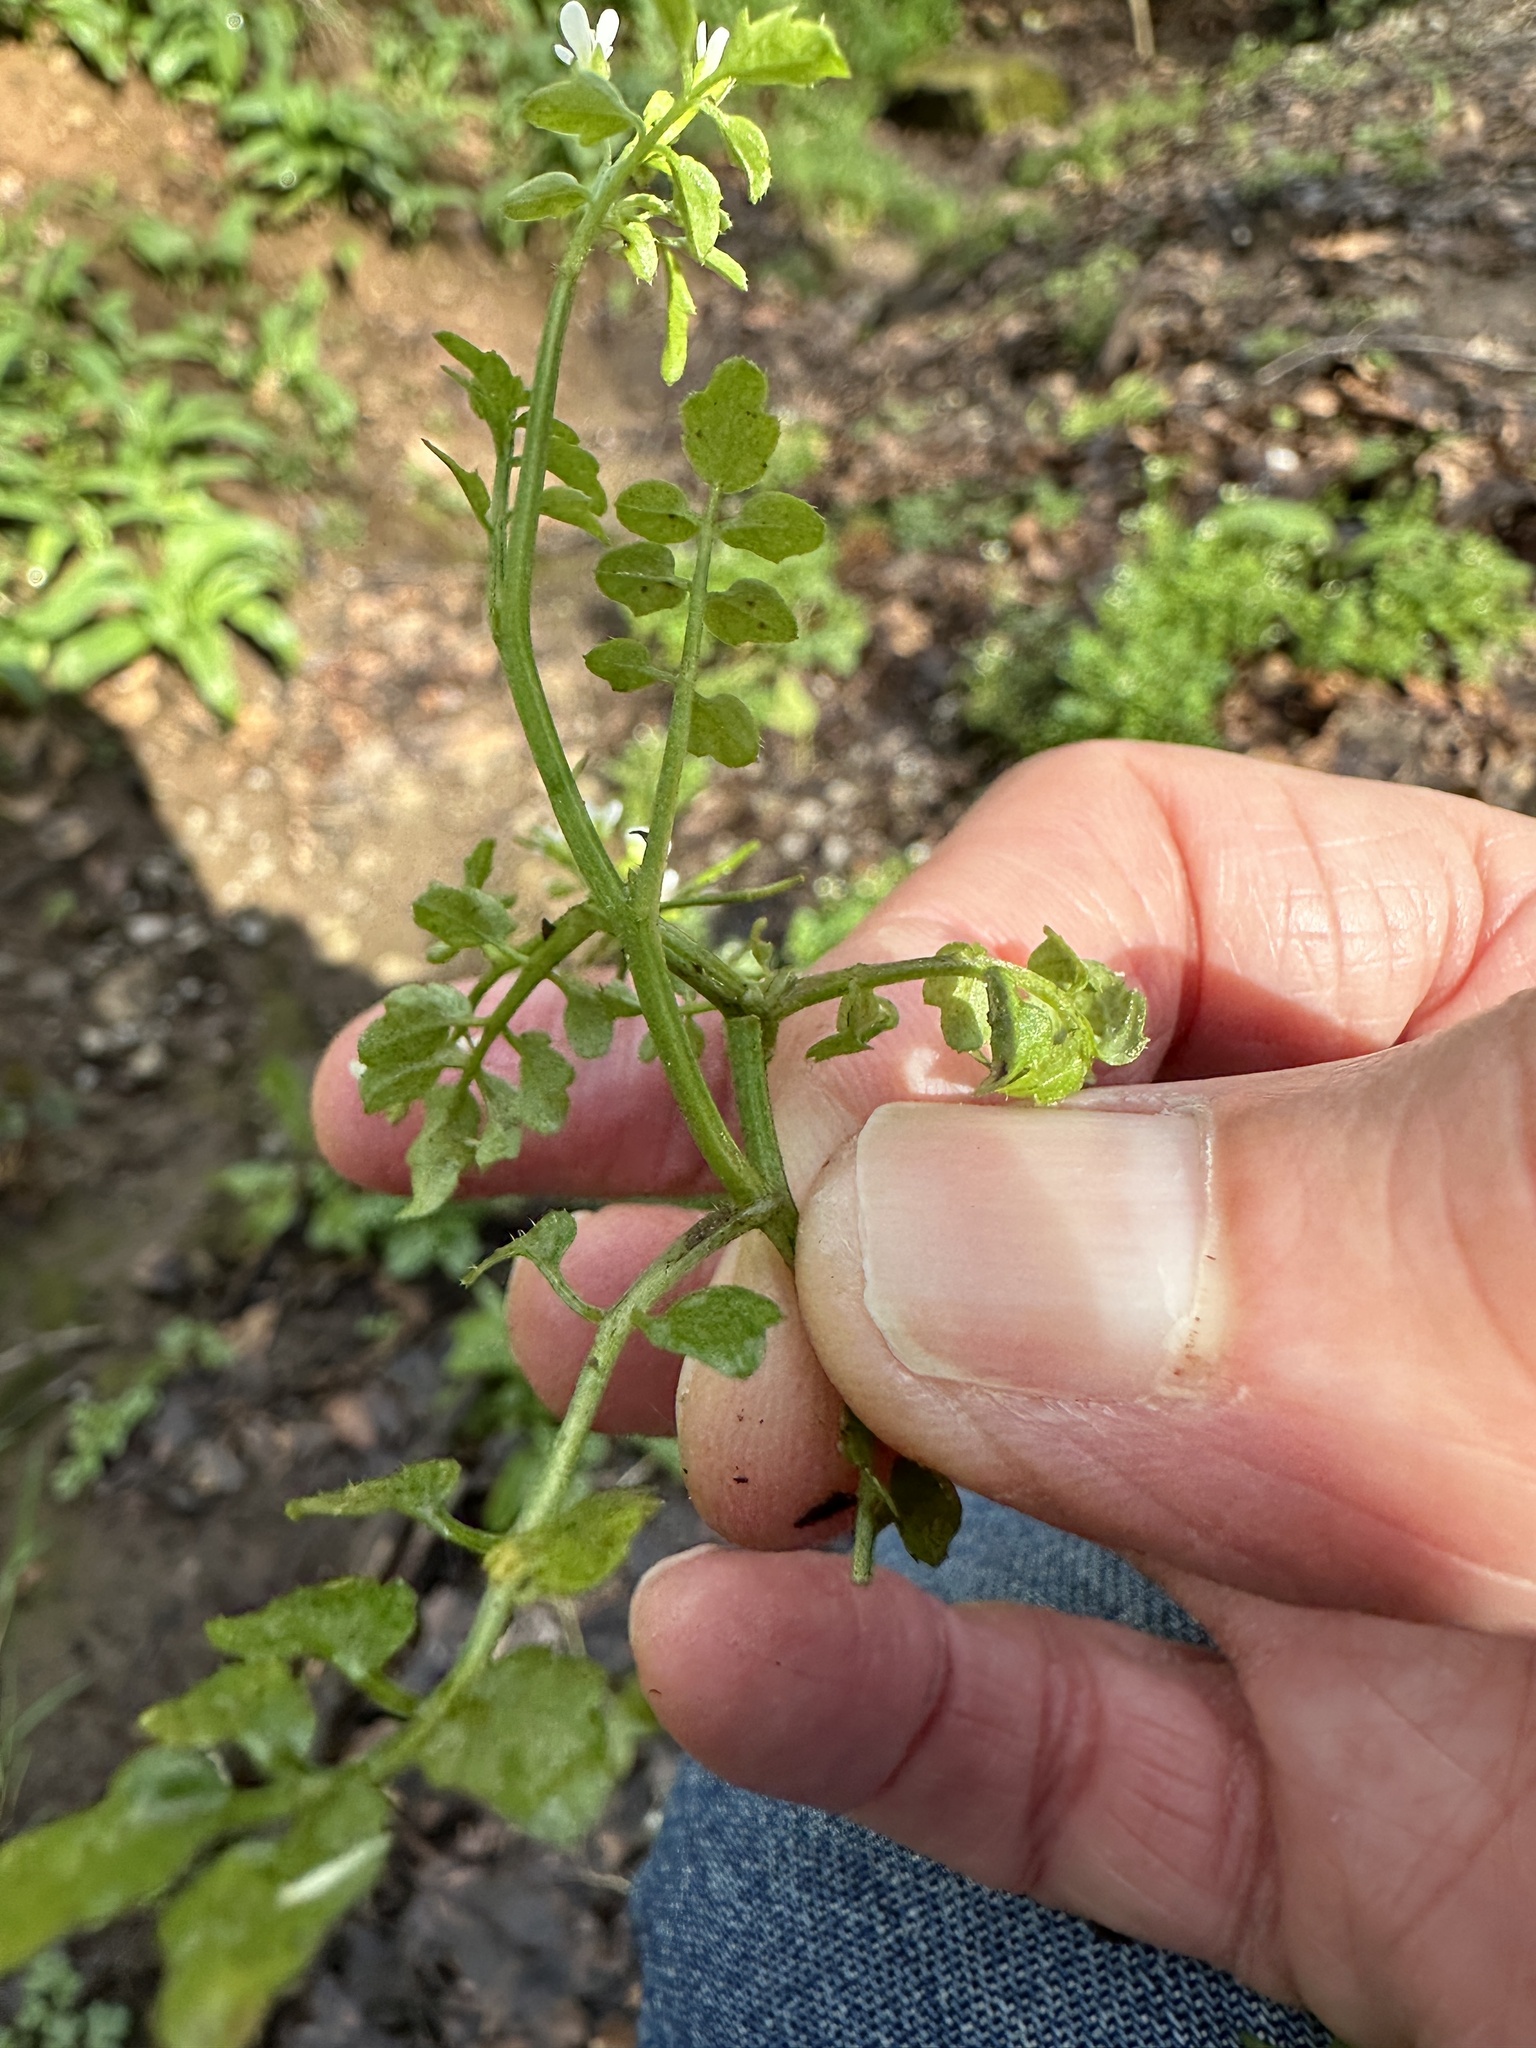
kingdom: Plantae
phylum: Tracheophyta
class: Magnoliopsida
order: Brassicales
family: Brassicaceae
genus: Cardamine
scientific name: Cardamine flexuosa
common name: Woodland bittercress
